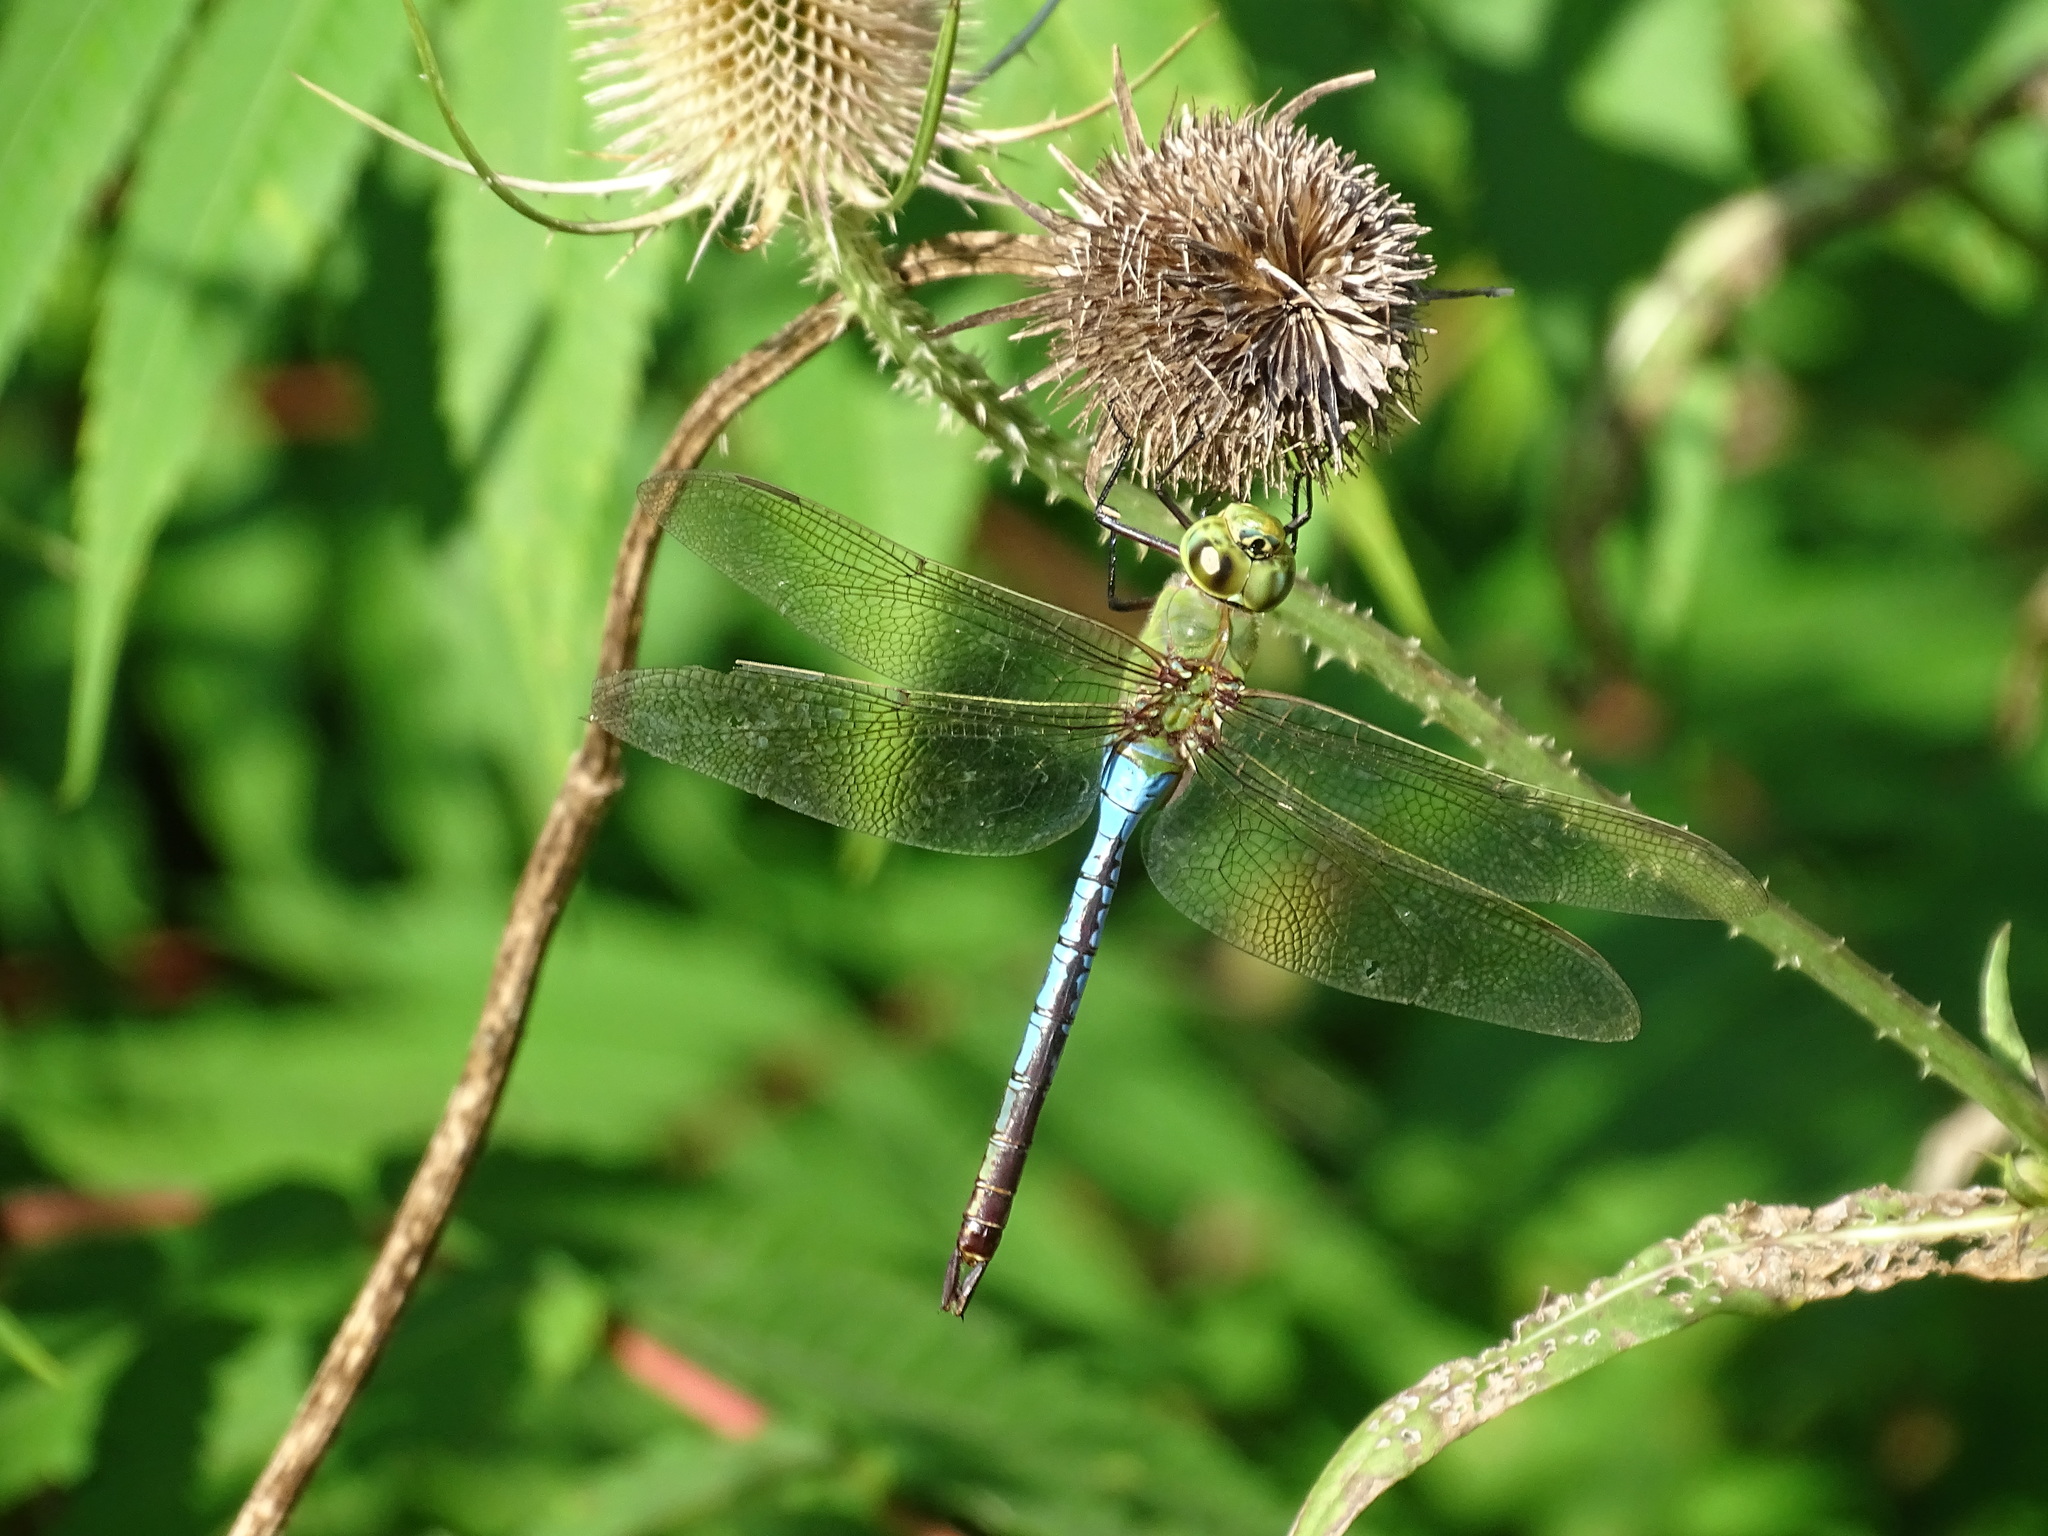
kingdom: Animalia
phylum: Arthropoda
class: Insecta
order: Odonata
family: Aeshnidae
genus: Anax
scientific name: Anax junius
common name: Common green darner
